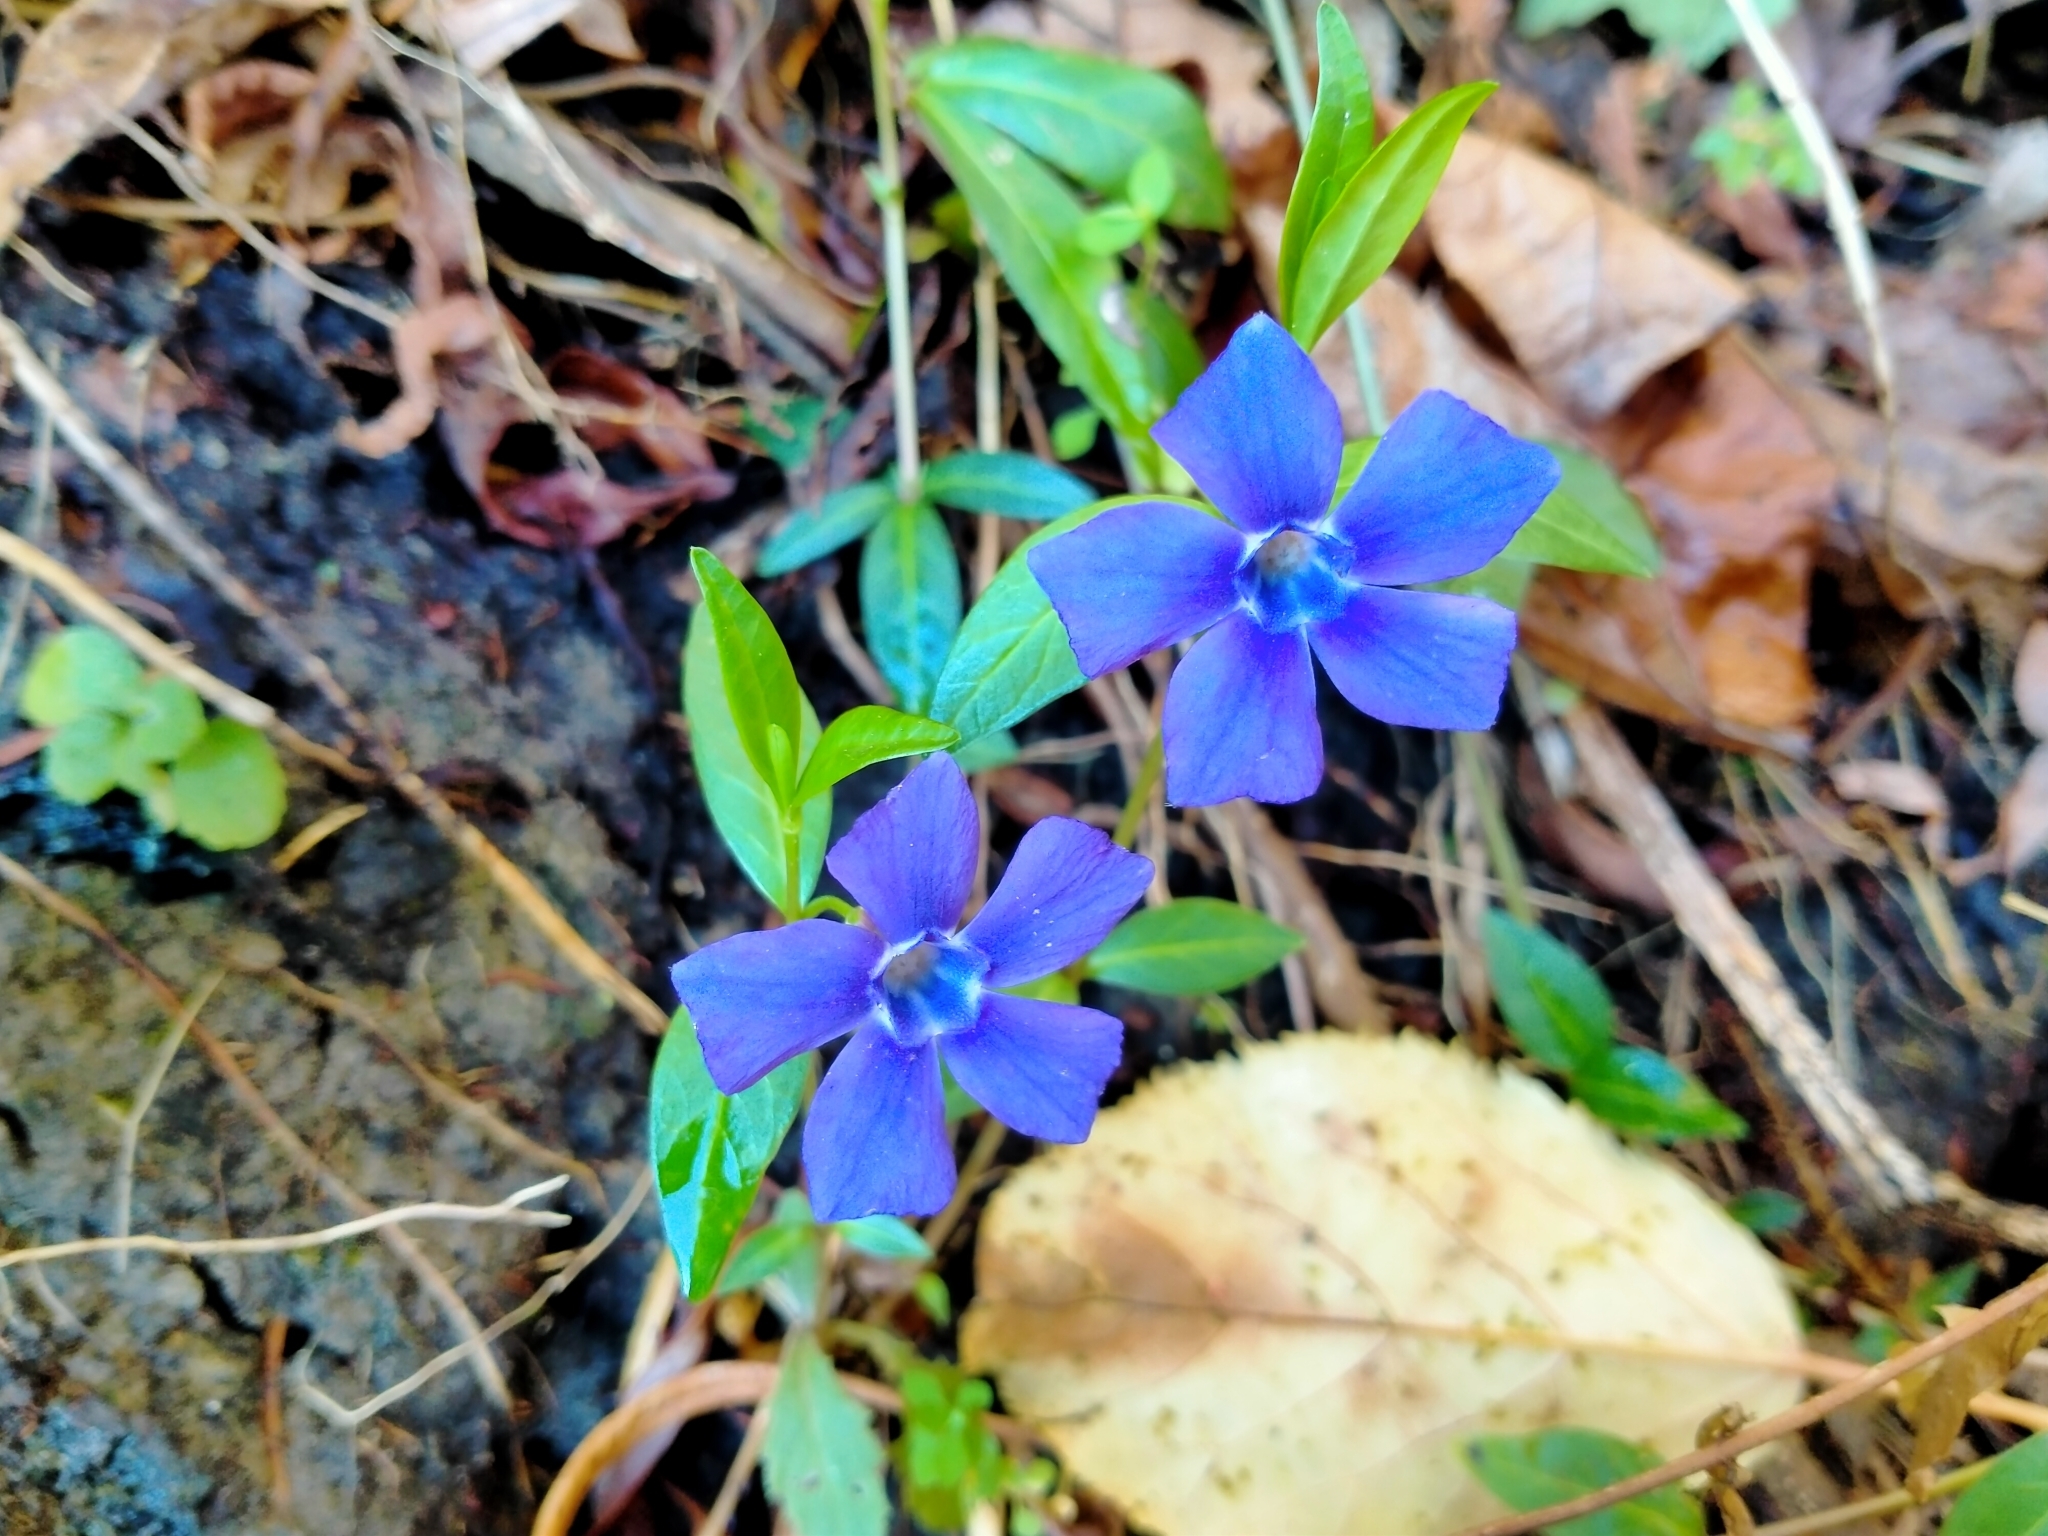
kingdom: Plantae
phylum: Tracheophyta
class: Magnoliopsida
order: Gentianales
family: Apocynaceae
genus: Vinca
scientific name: Vinca minor
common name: Lesser periwinkle
